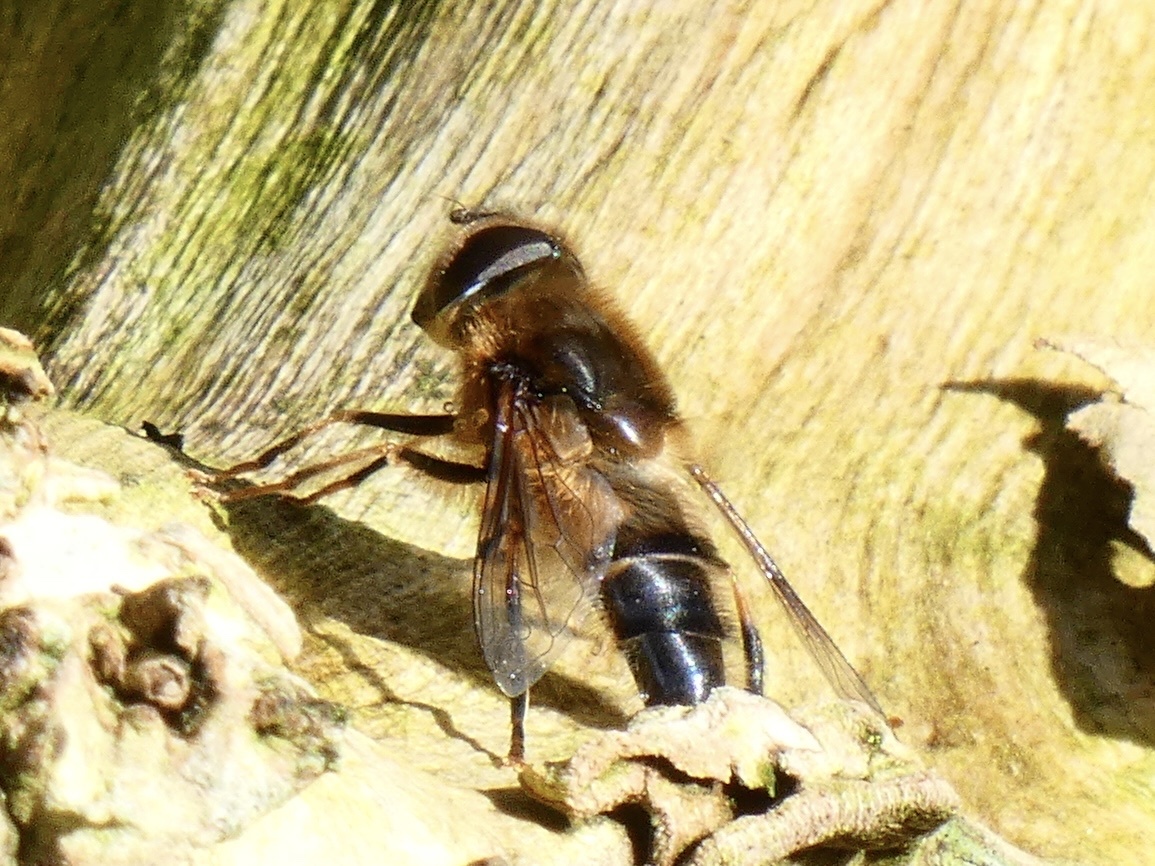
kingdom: Animalia
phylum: Arthropoda
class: Insecta
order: Diptera
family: Syrphidae
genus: Eristalis
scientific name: Eristalis pertinax
